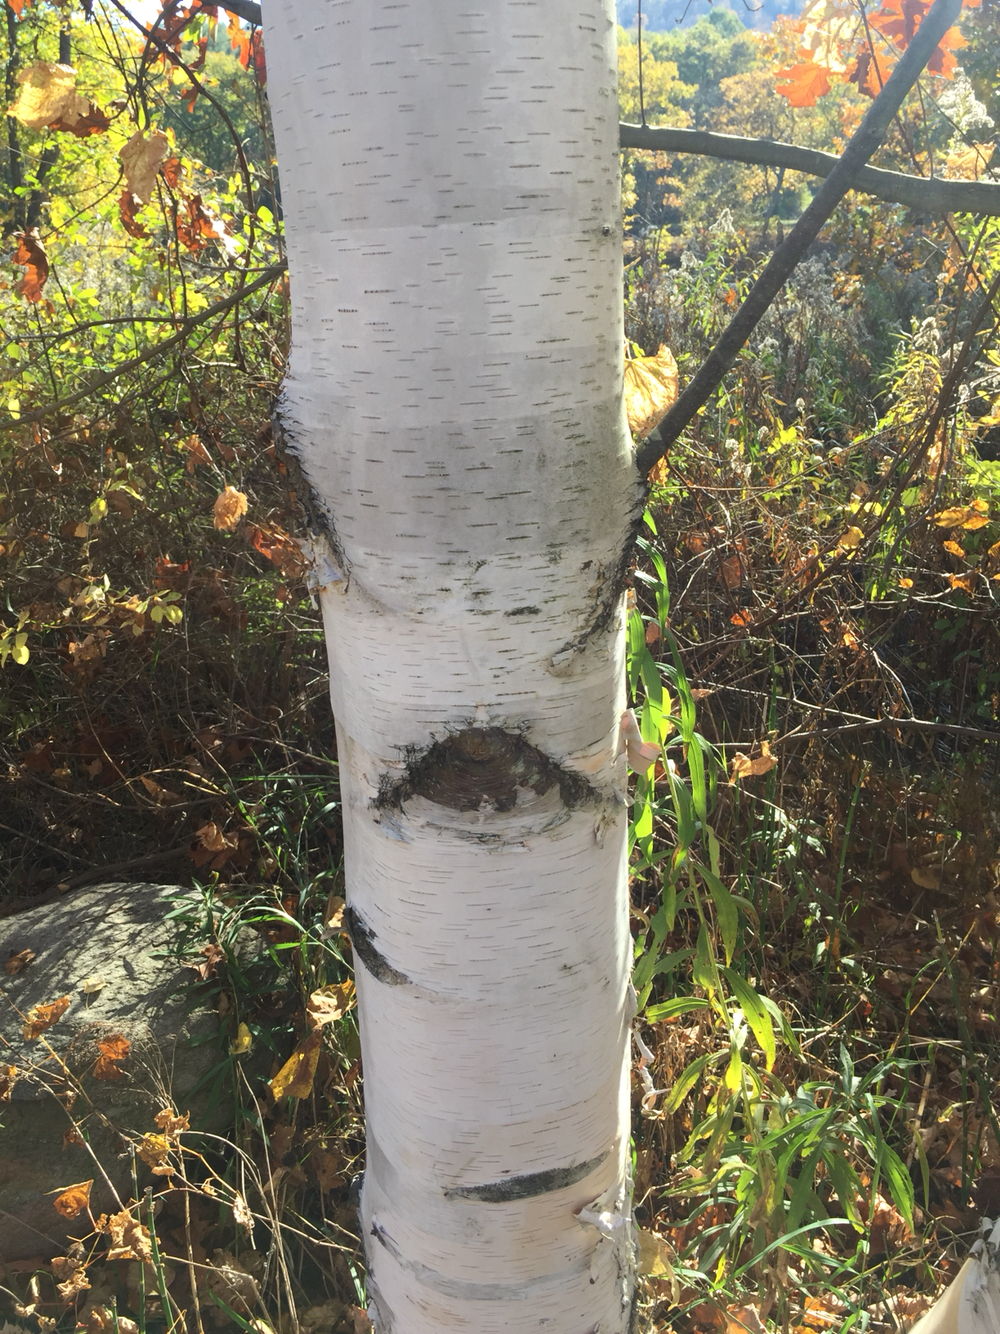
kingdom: Plantae
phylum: Tracheophyta
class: Magnoliopsida
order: Fagales
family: Betulaceae
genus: Betula
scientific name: Betula papyrifera
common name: Paper birch
